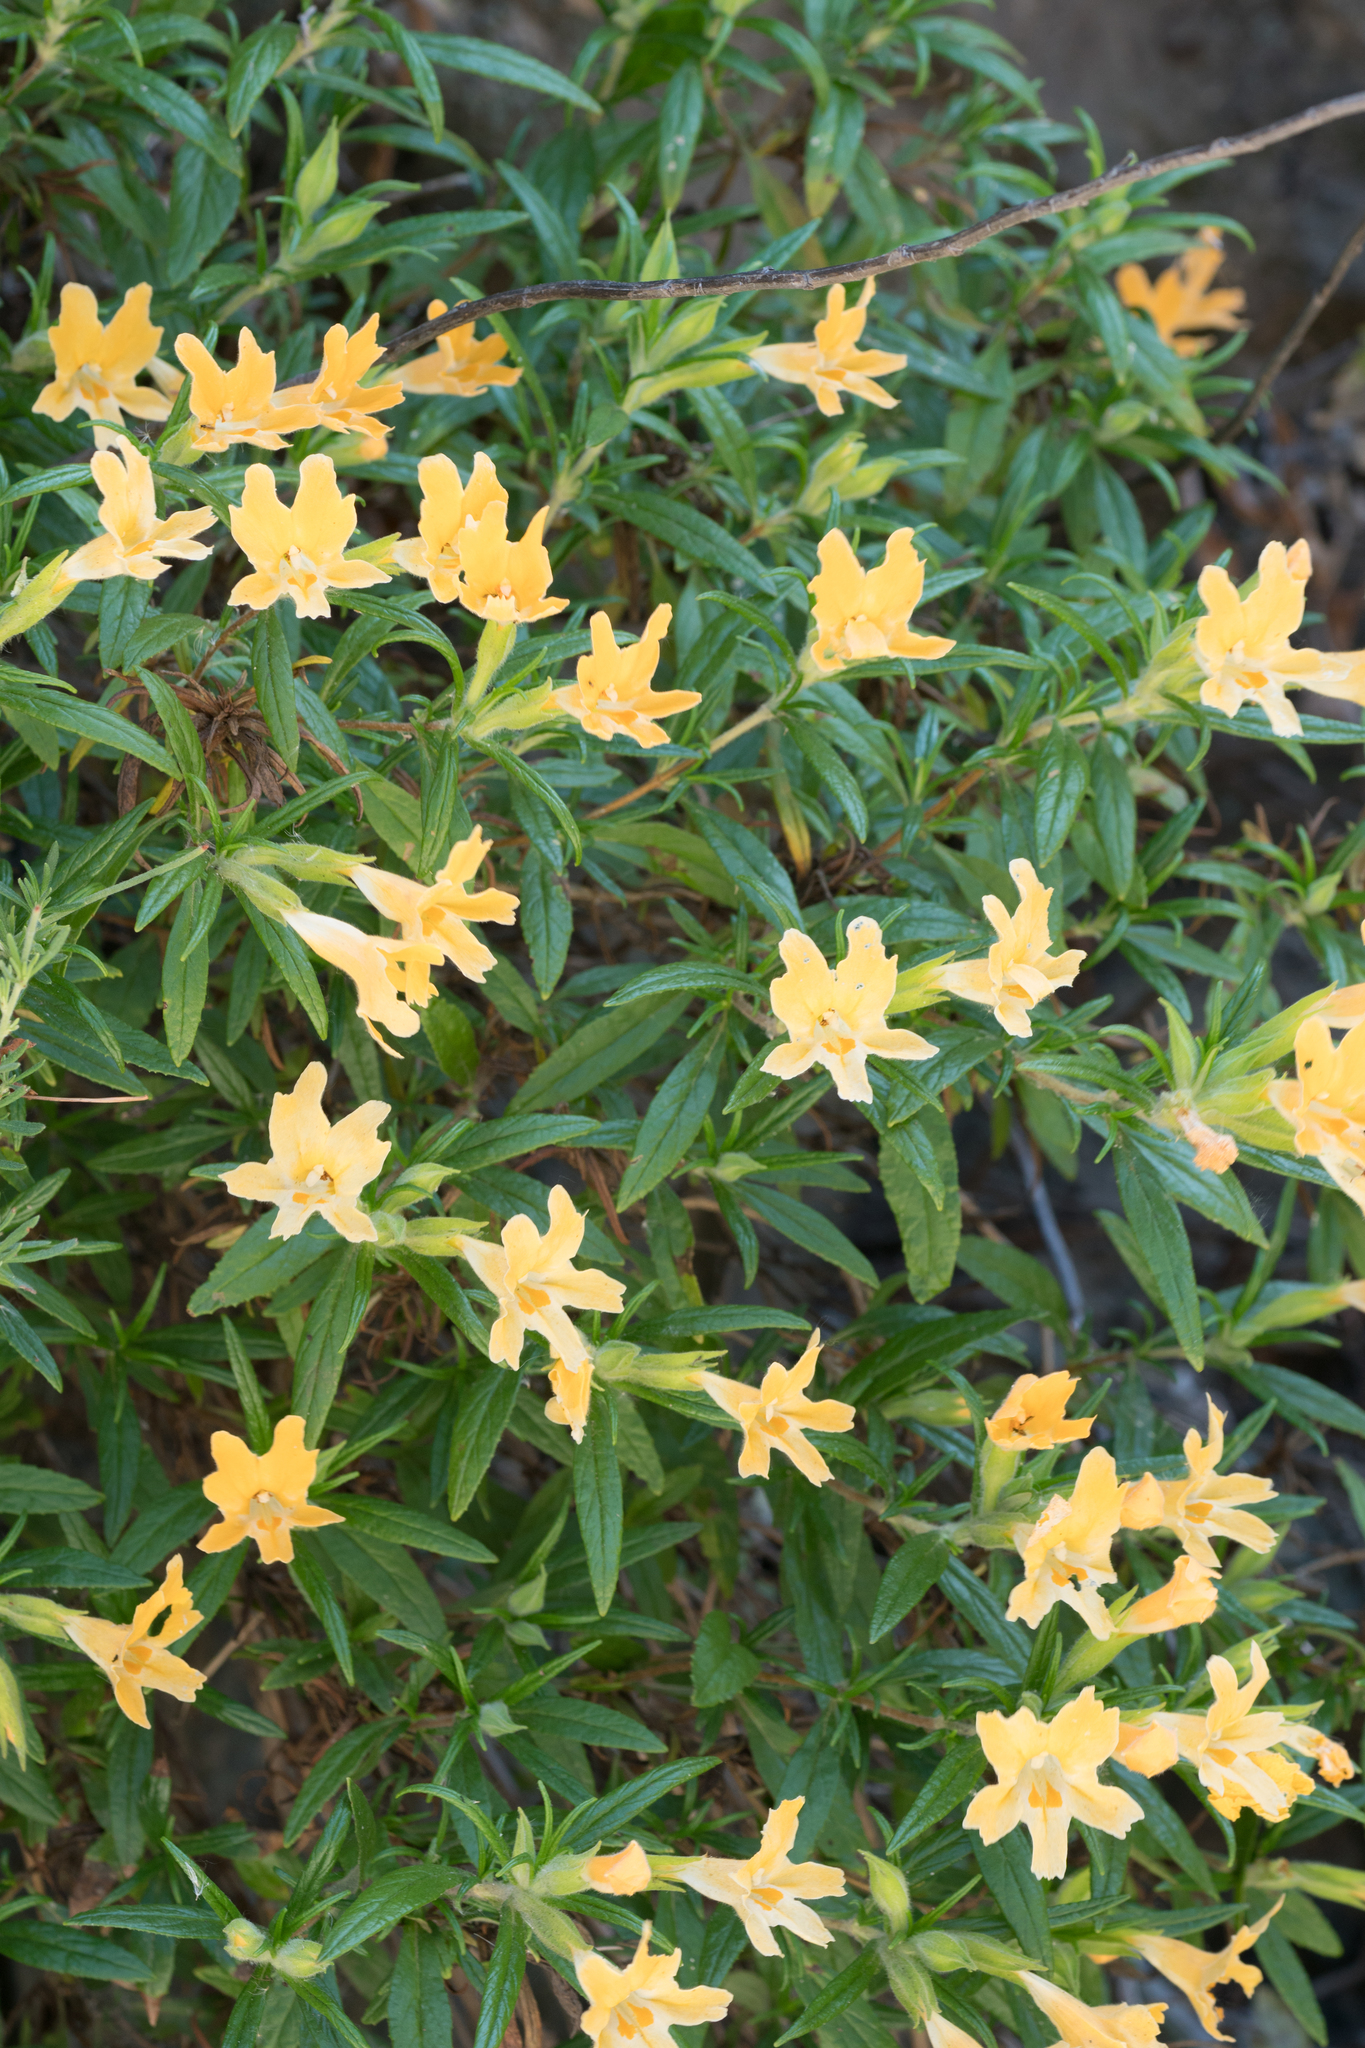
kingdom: Plantae
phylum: Tracheophyta
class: Magnoliopsida
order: Lamiales
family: Phrymaceae
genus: Diplacus
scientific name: Diplacus longiflorus
